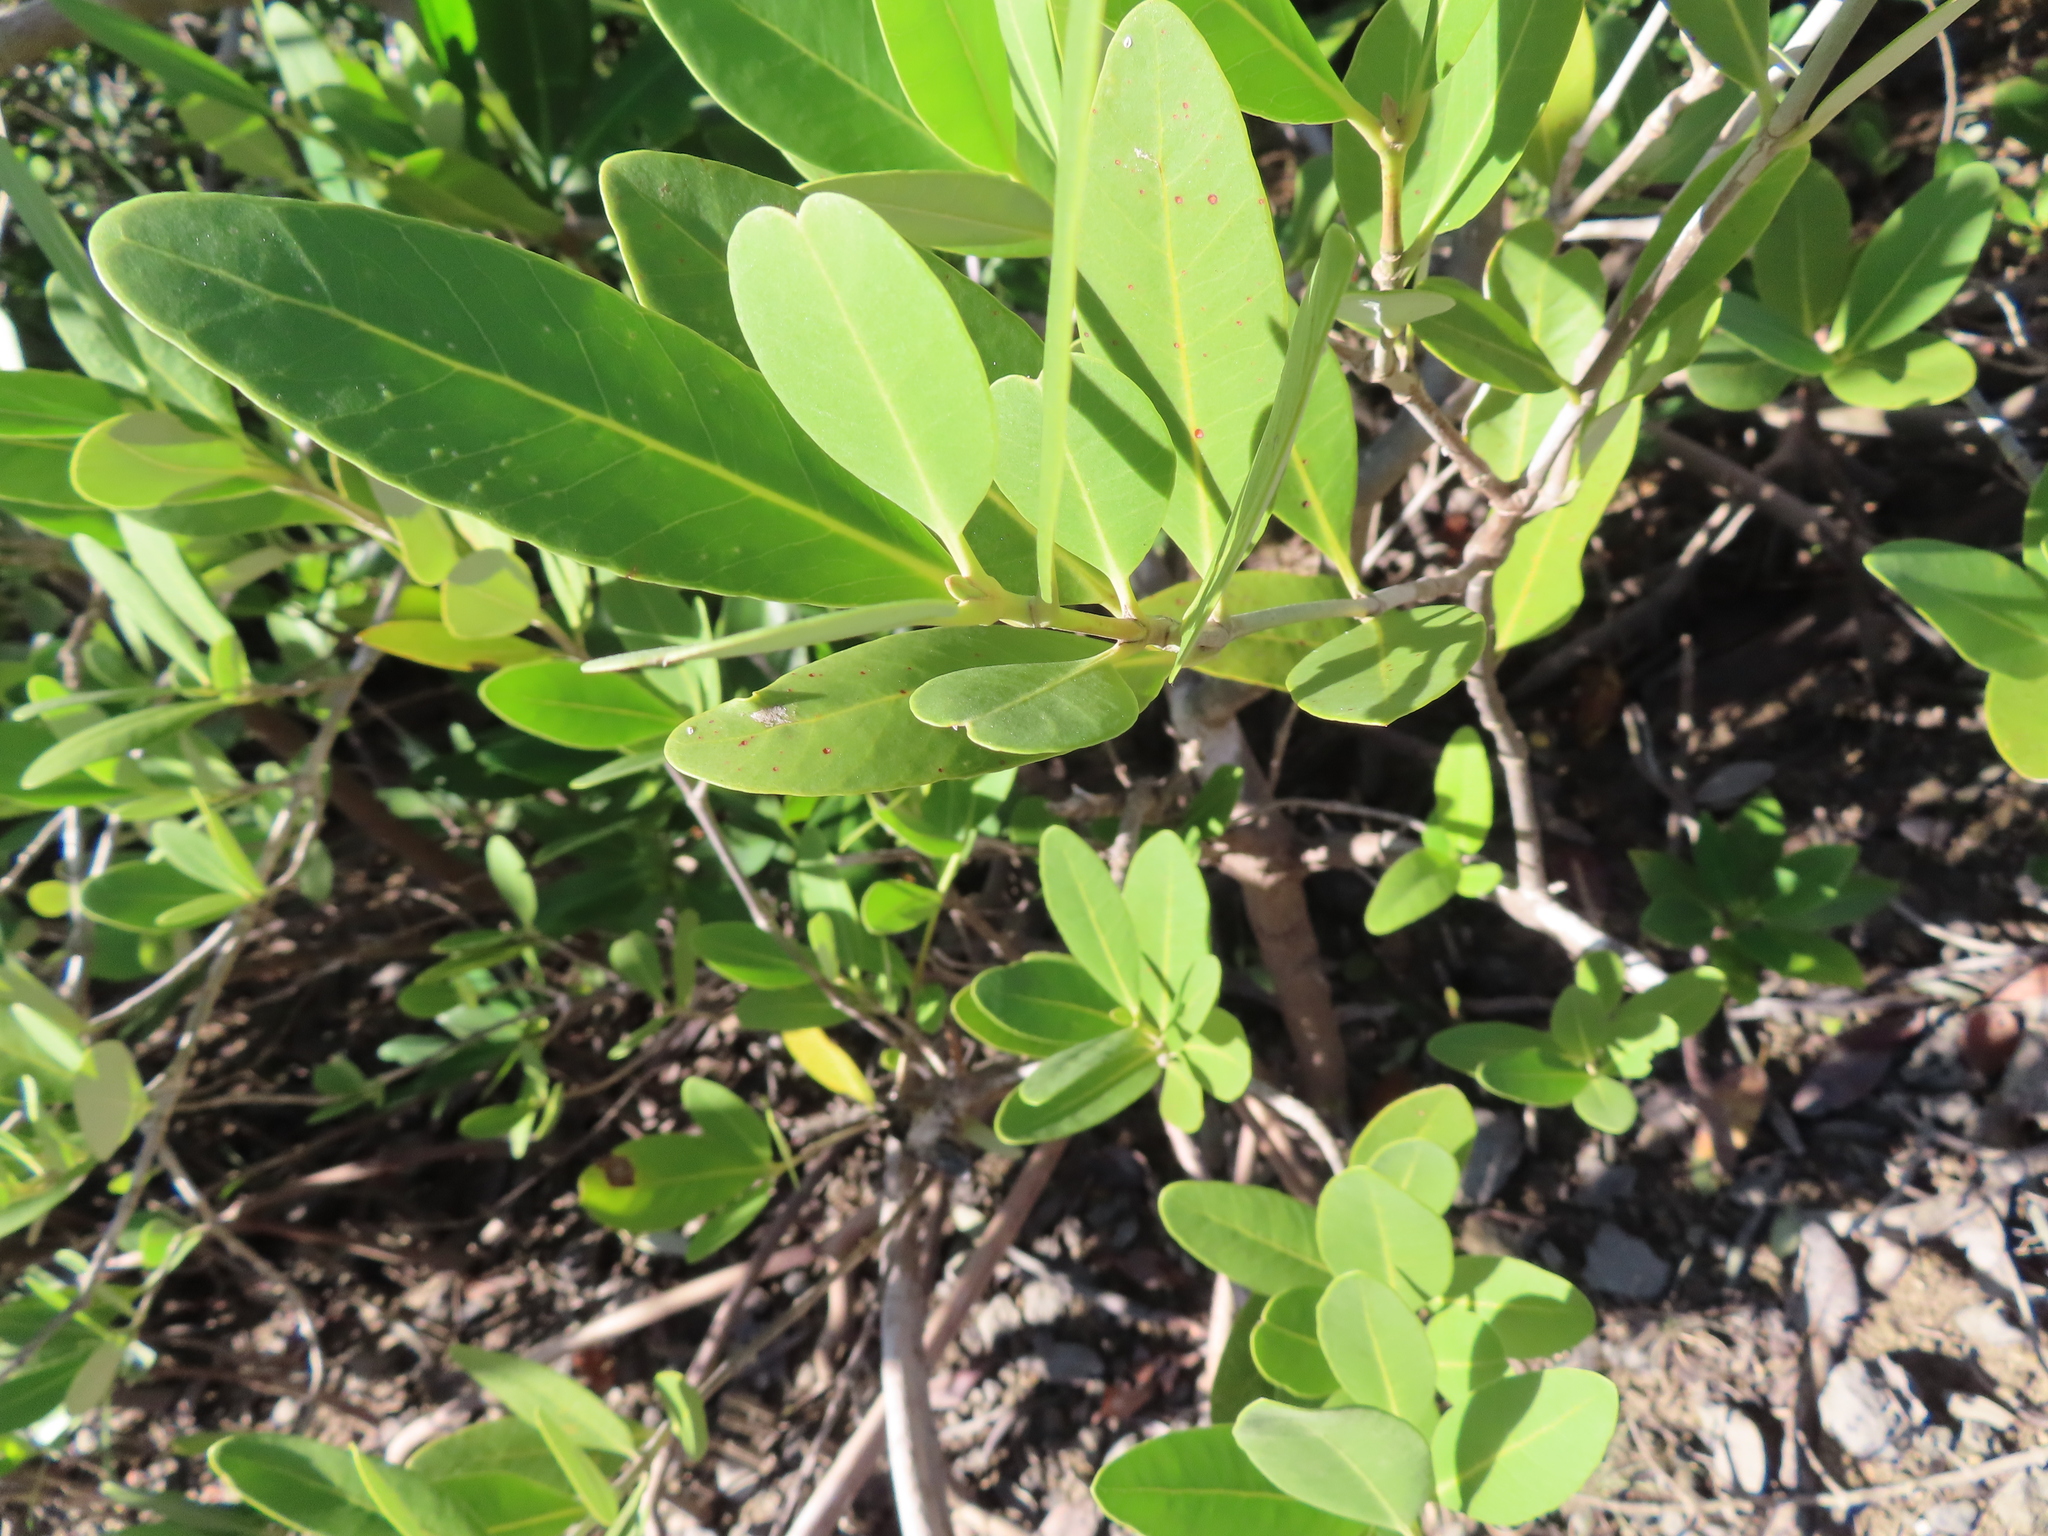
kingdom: Plantae
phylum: Tracheophyta
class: Magnoliopsida
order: Lamiales
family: Acanthaceae
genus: Avicennia
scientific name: Avicennia germinans
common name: Black mangrove
